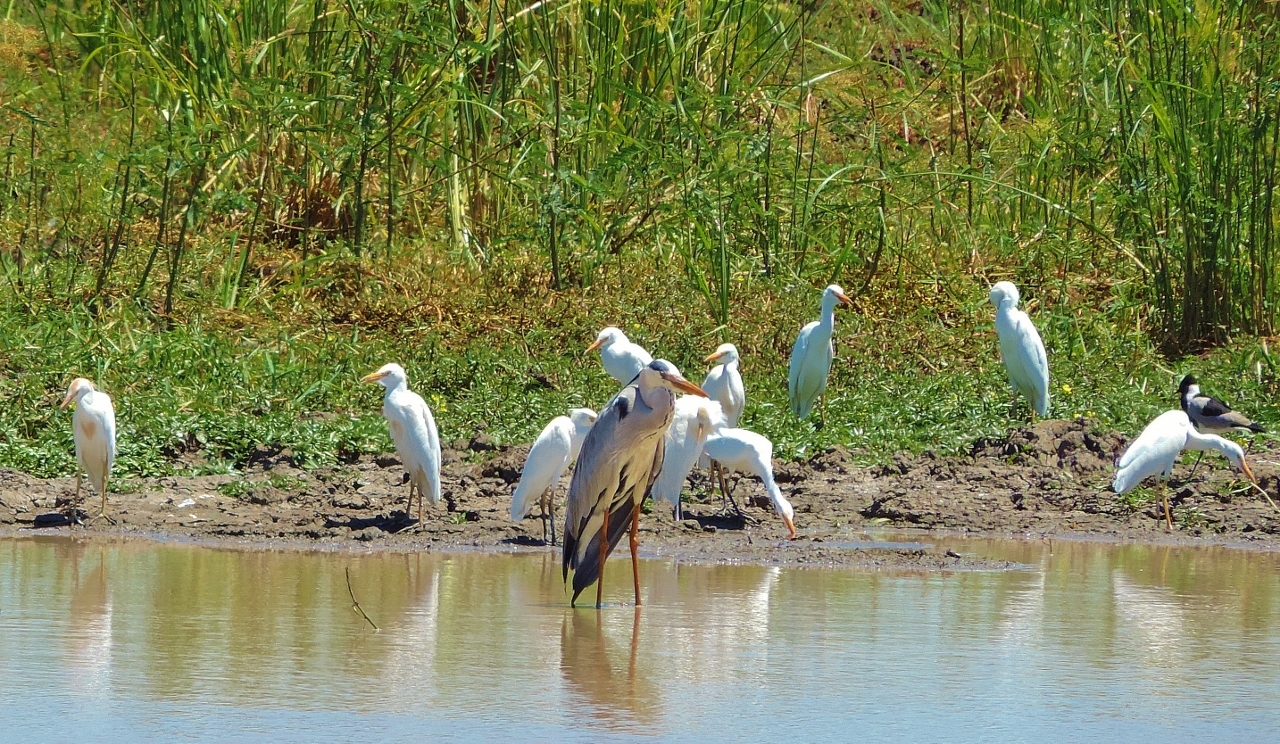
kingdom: Animalia
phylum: Chordata
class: Aves
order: Pelecaniformes
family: Ardeidae
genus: Ardea
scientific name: Ardea cinerea
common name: Grey heron
